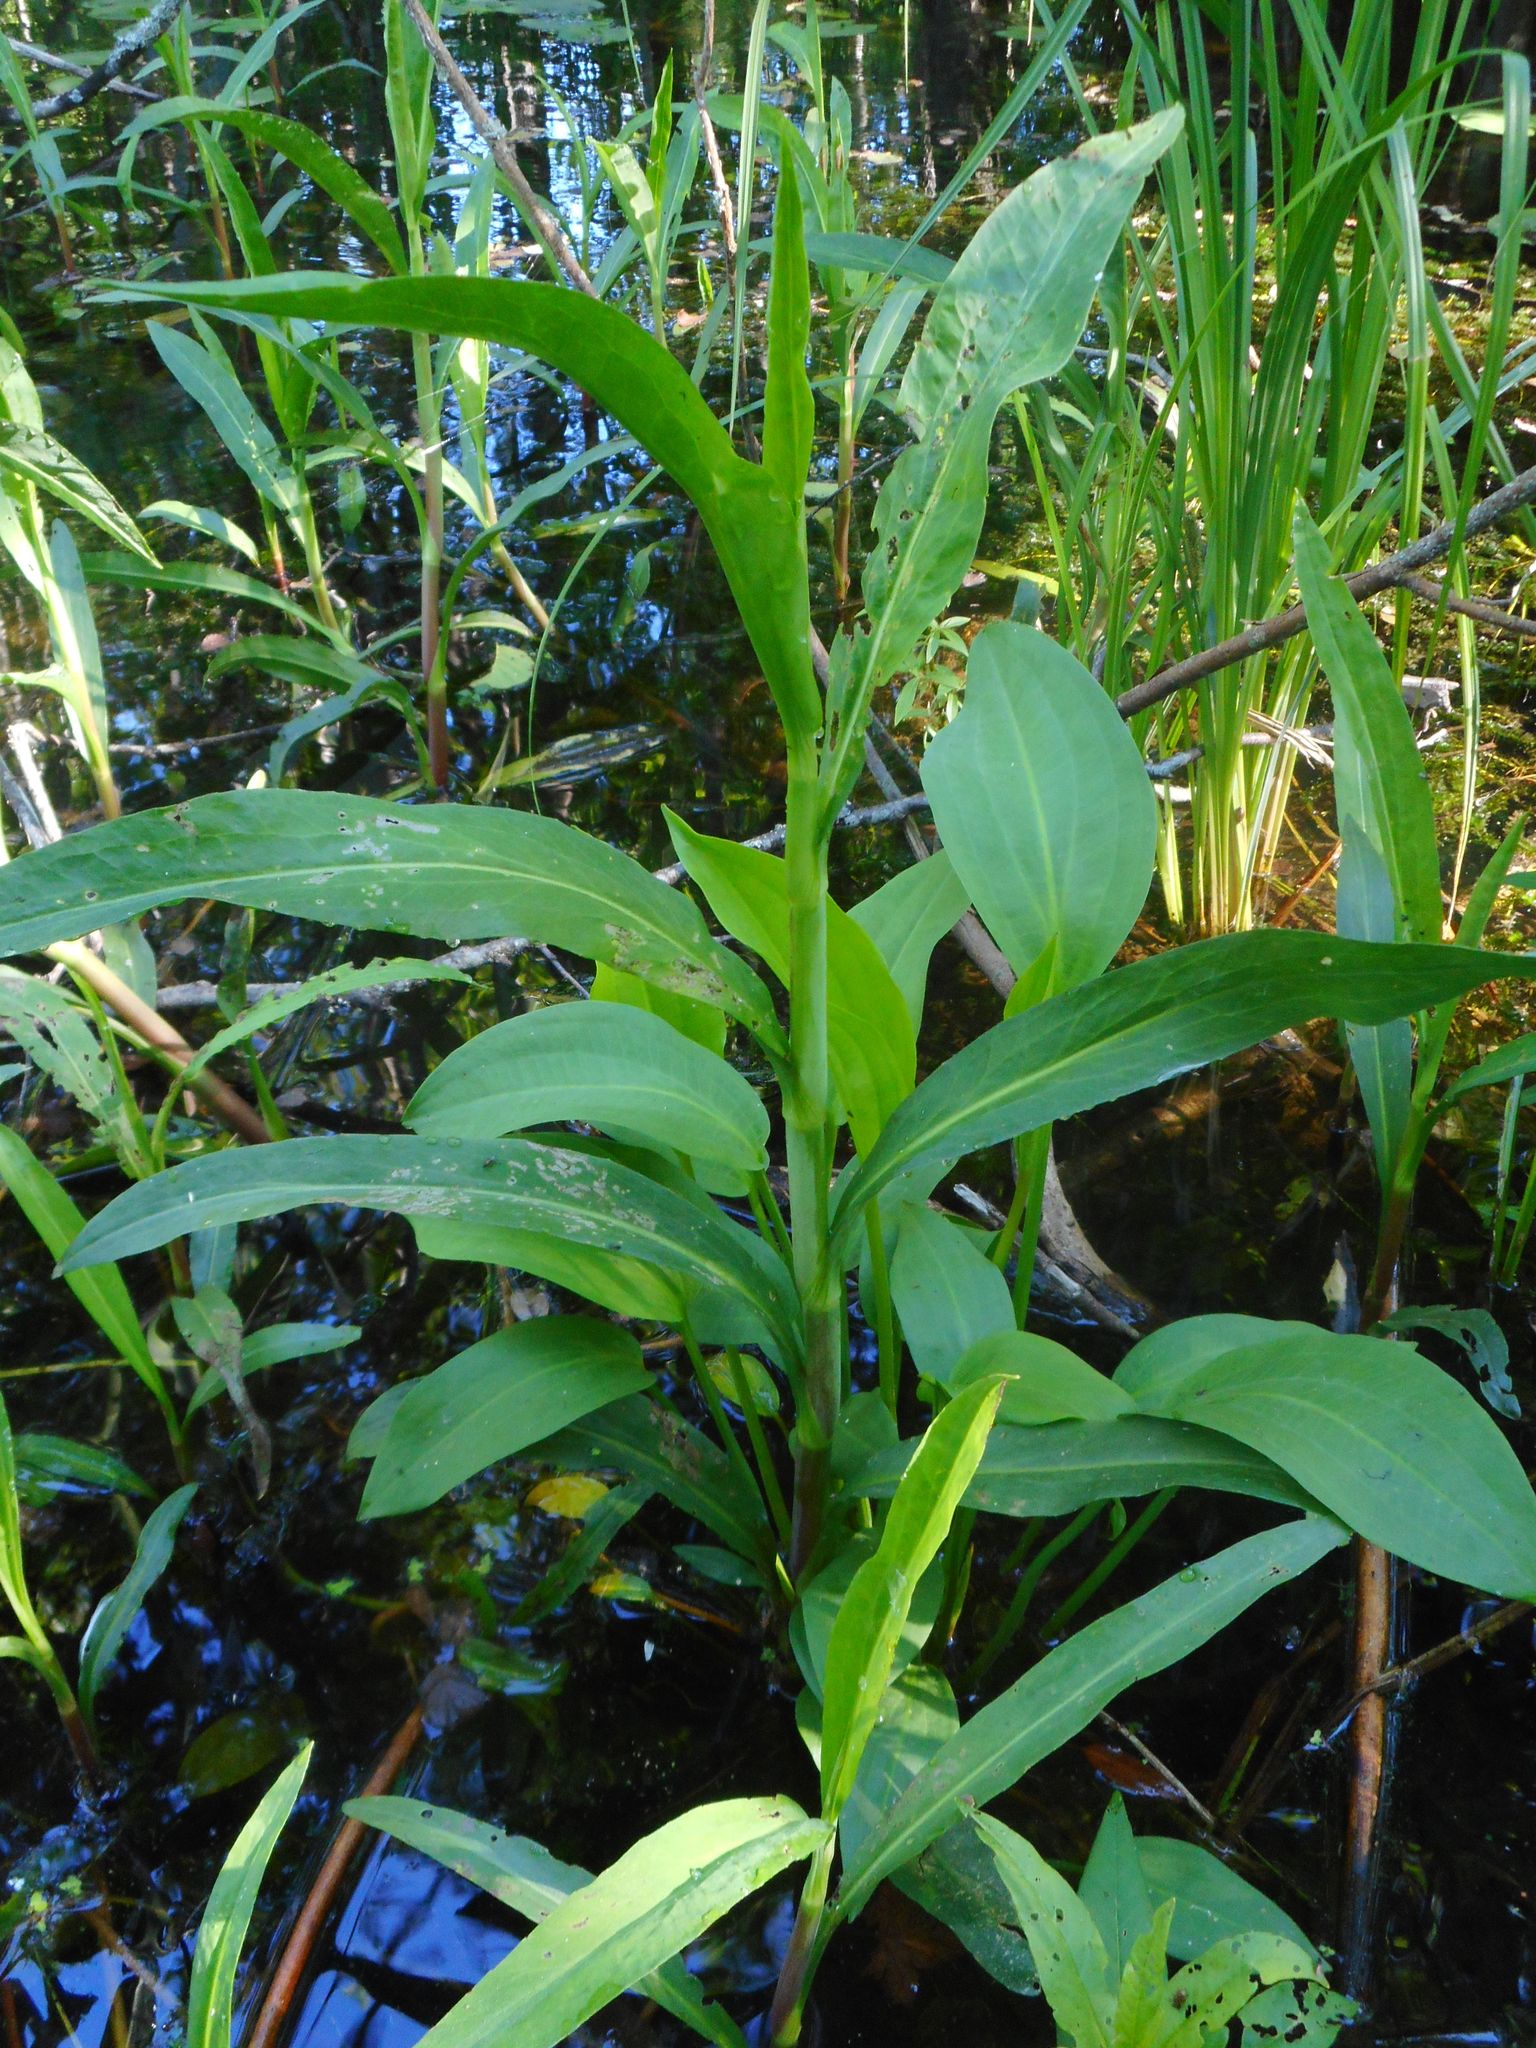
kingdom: Plantae
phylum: Tracheophyta
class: Magnoliopsida
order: Ranunculales
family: Ranunculaceae
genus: Ranunculus
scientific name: Ranunculus lingua
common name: Greater spearwort
